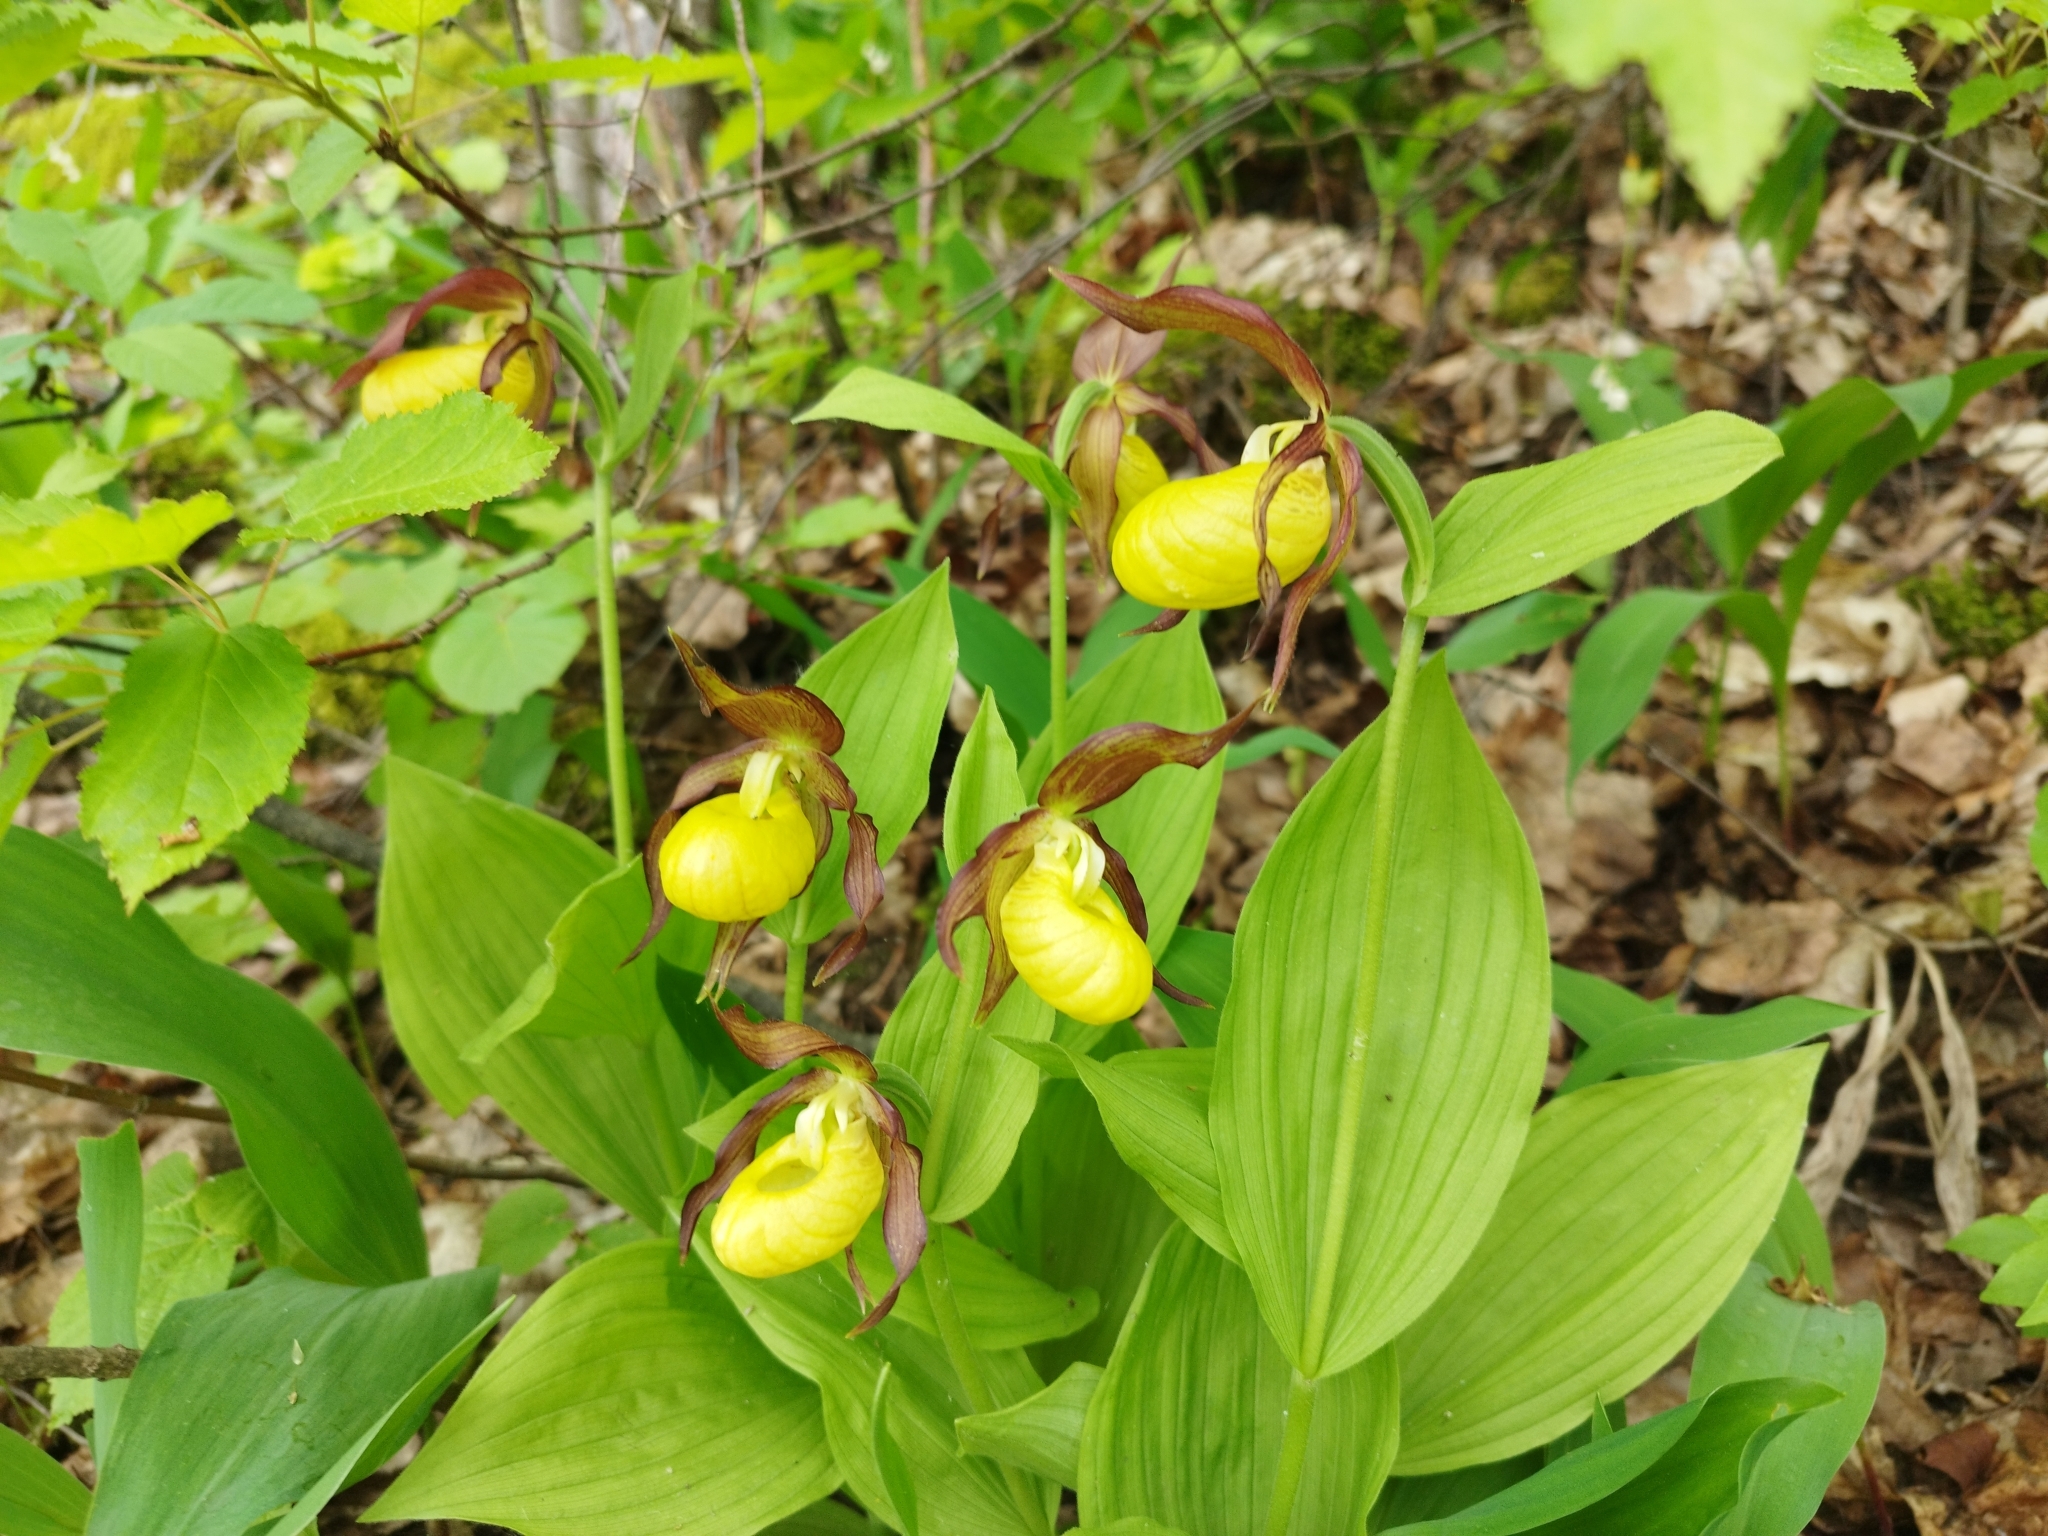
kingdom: Plantae
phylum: Tracheophyta
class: Liliopsida
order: Asparagales
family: Orchidaceae
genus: Cypripedium
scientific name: Cypripedium calceolus
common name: Lady's-slipper
